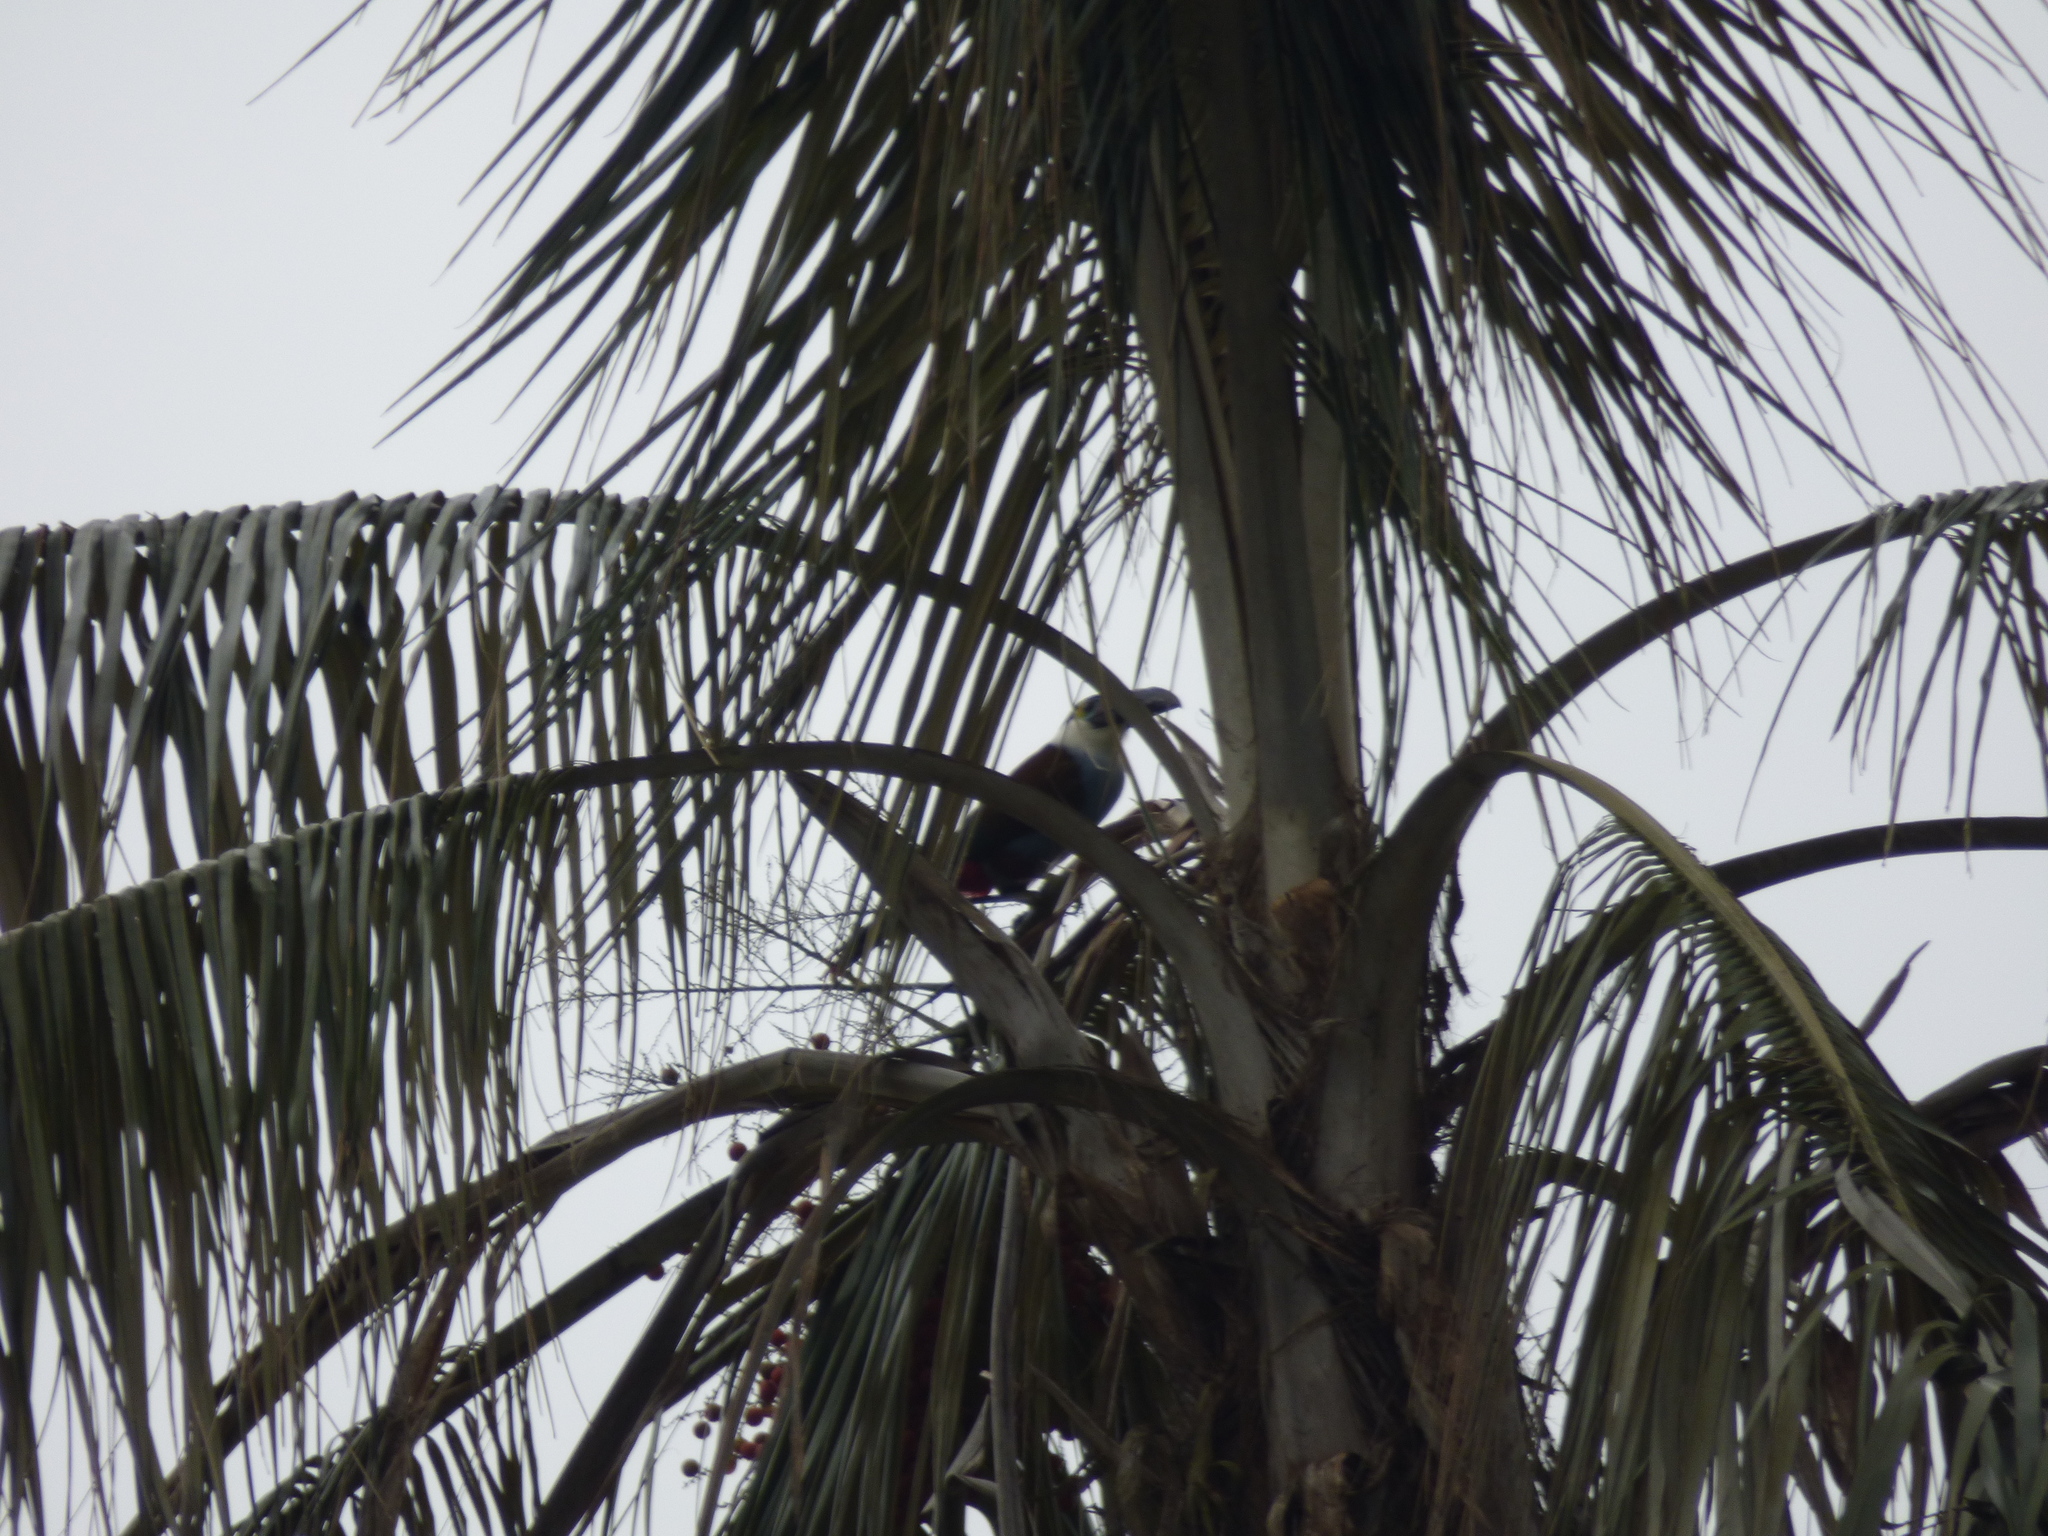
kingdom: Animalia
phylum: Chordata
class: Aves
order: Piciformes
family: Ramphastidae
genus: Andigena
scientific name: Andigena nigrirostris
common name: Black-billed mountain toucan
